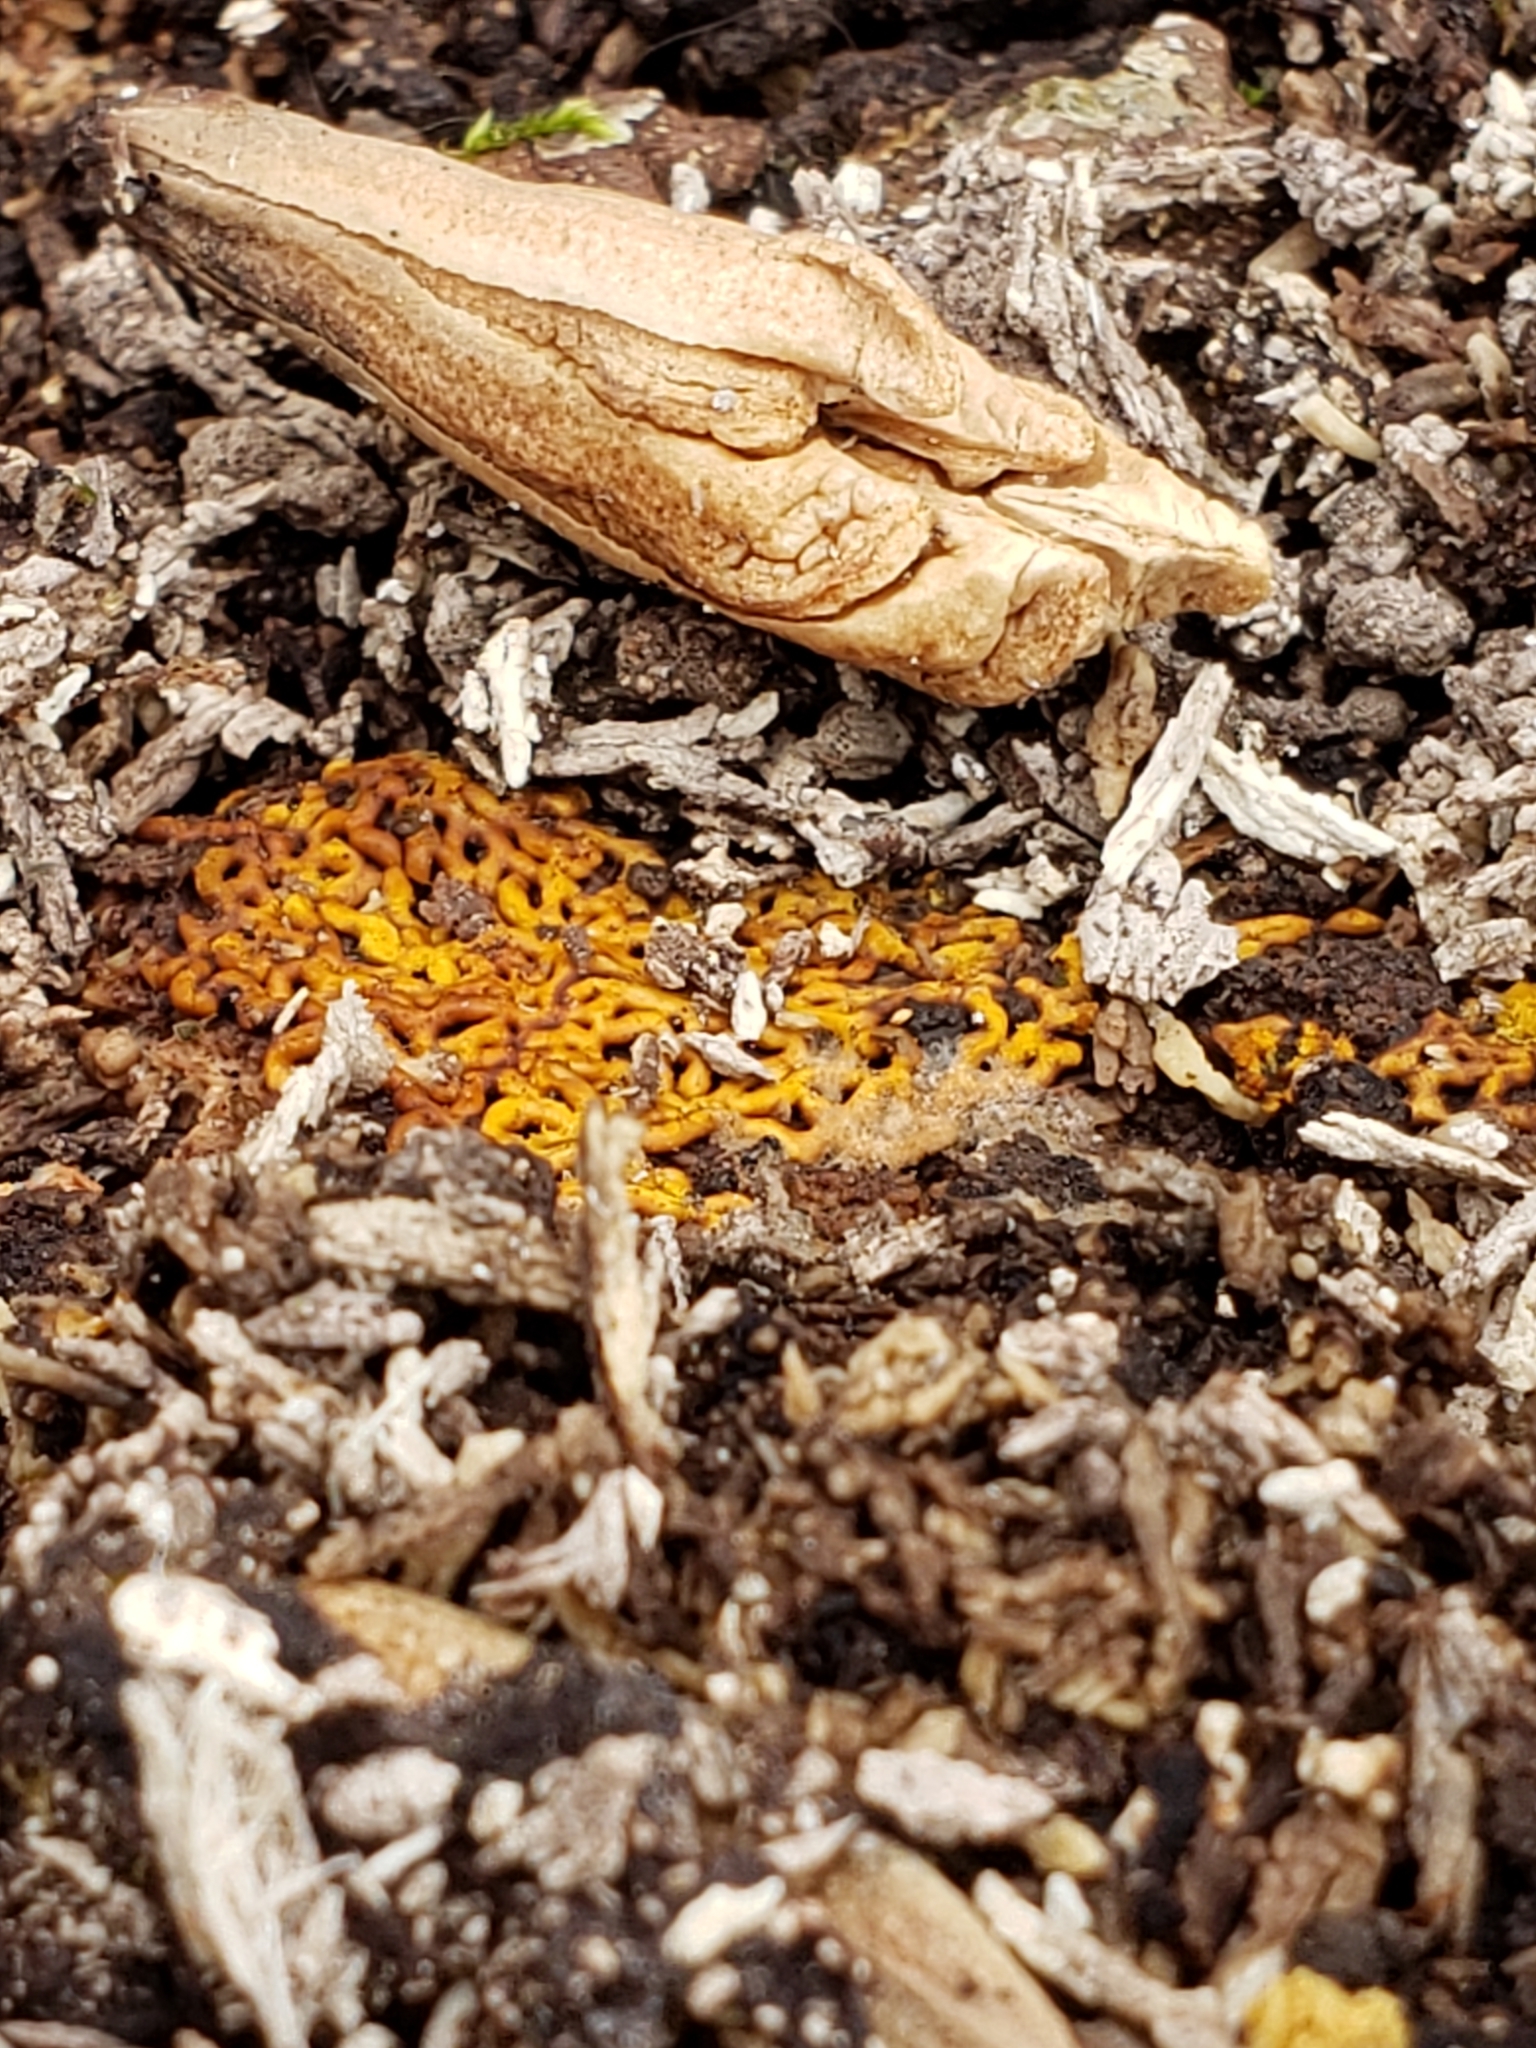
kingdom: Protozoa
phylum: Mycetozoa
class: Myxomycetes
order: Trichiales
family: Arcyriaceae
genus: Hemitrichia
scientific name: Hemitrichia serpula
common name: Pretzel slime mold
